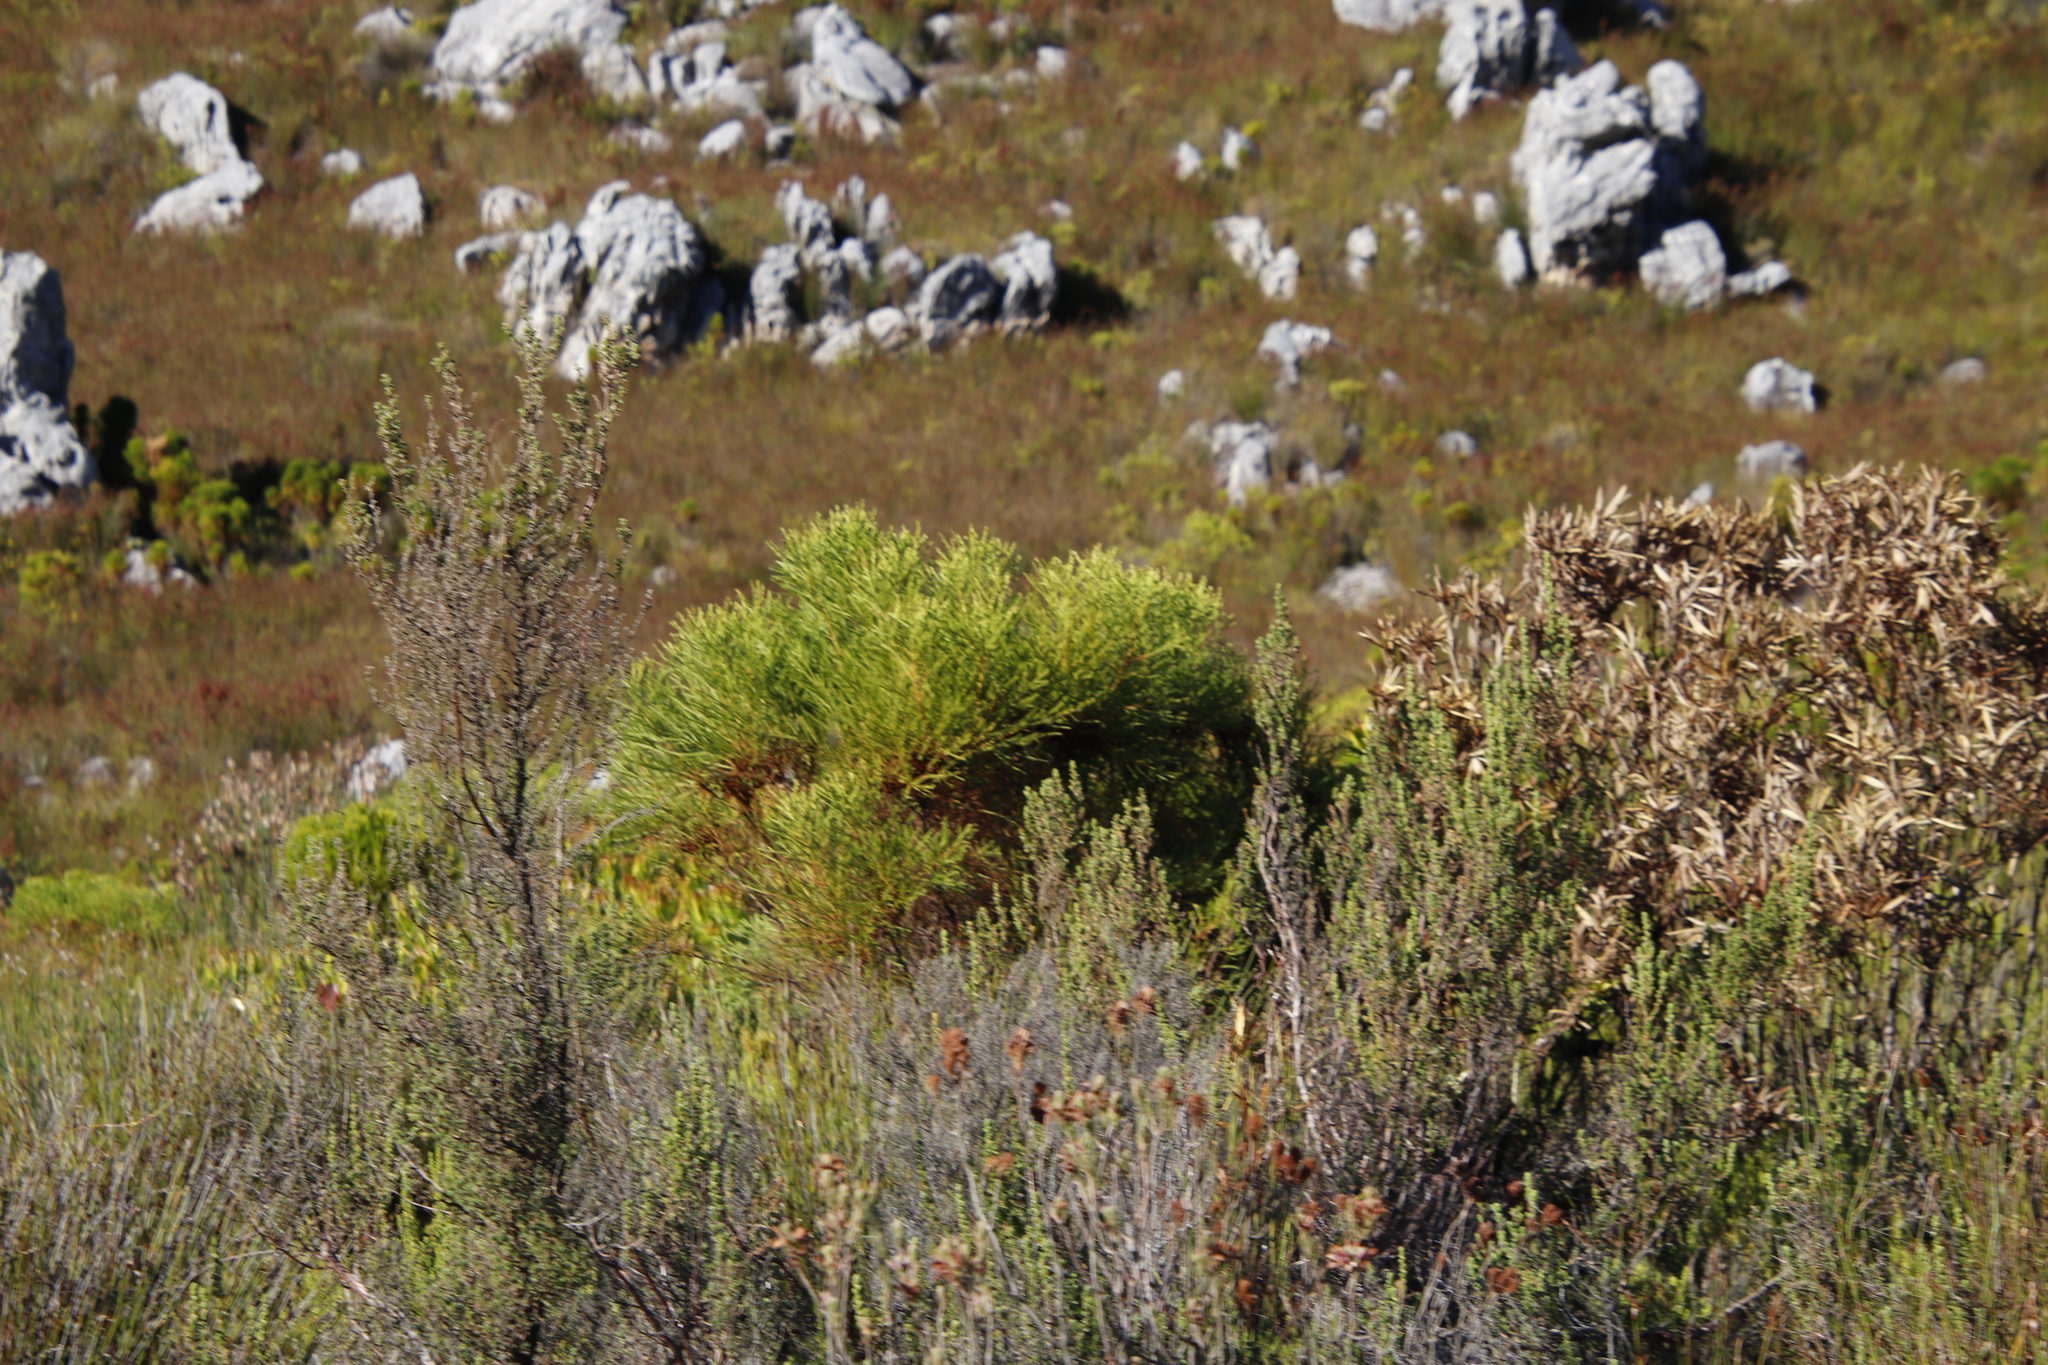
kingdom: Plantae
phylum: Tracheophyta
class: Magnoliopsida
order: Bruniales
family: Bruniaceae
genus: Berzelia
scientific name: Berzelia lanuginosa
